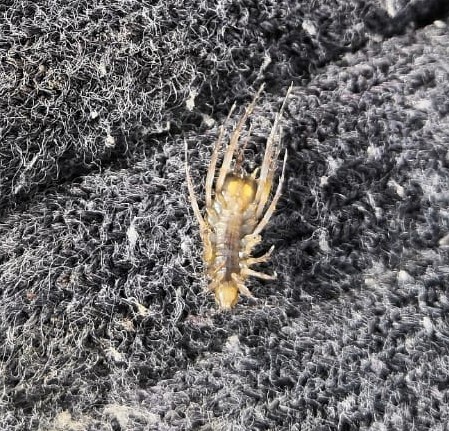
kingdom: Animalia
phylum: Arthropoda
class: Malacostraca
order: Isopoda
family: Asellidae
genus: Asellus
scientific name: Asellus aquaticus
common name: Water hog lice/slaters
